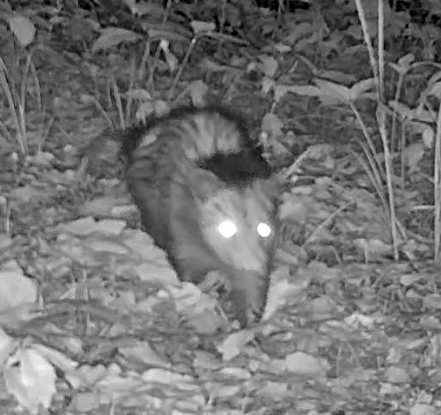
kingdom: Animalia
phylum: Chordata
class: Mammalia
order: Didelphimorphia
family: Didelphidae
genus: Didelphis
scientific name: Didelphis virginiana
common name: Virginia opossum
